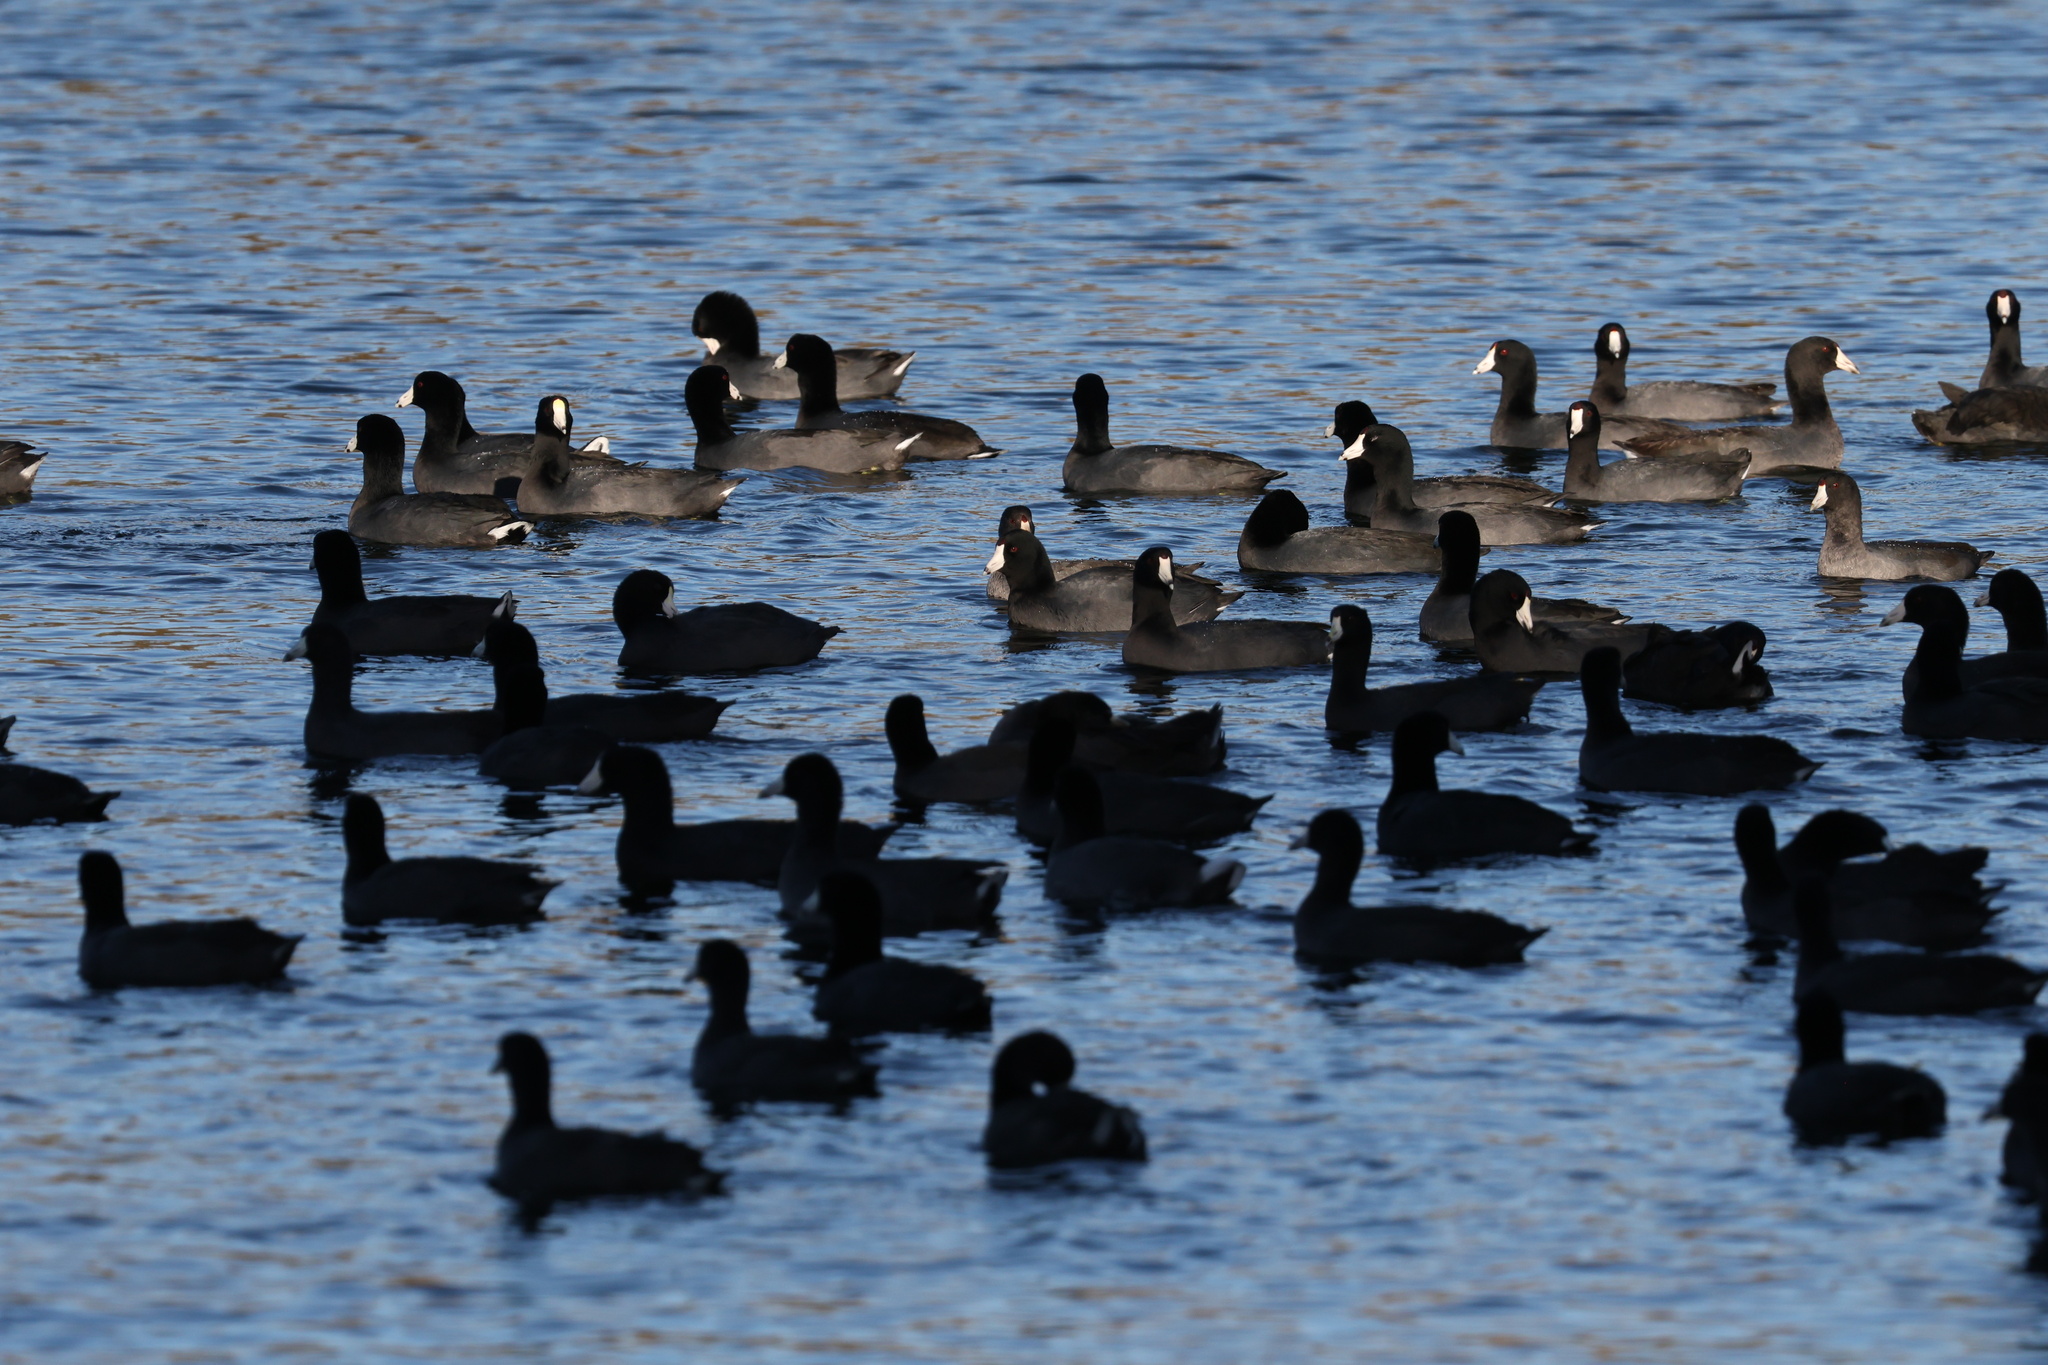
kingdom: Animalia
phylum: Chordata
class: Aves
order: Gruiformes
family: Rallidae
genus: Fulica
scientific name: Fulica americana
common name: American coot
